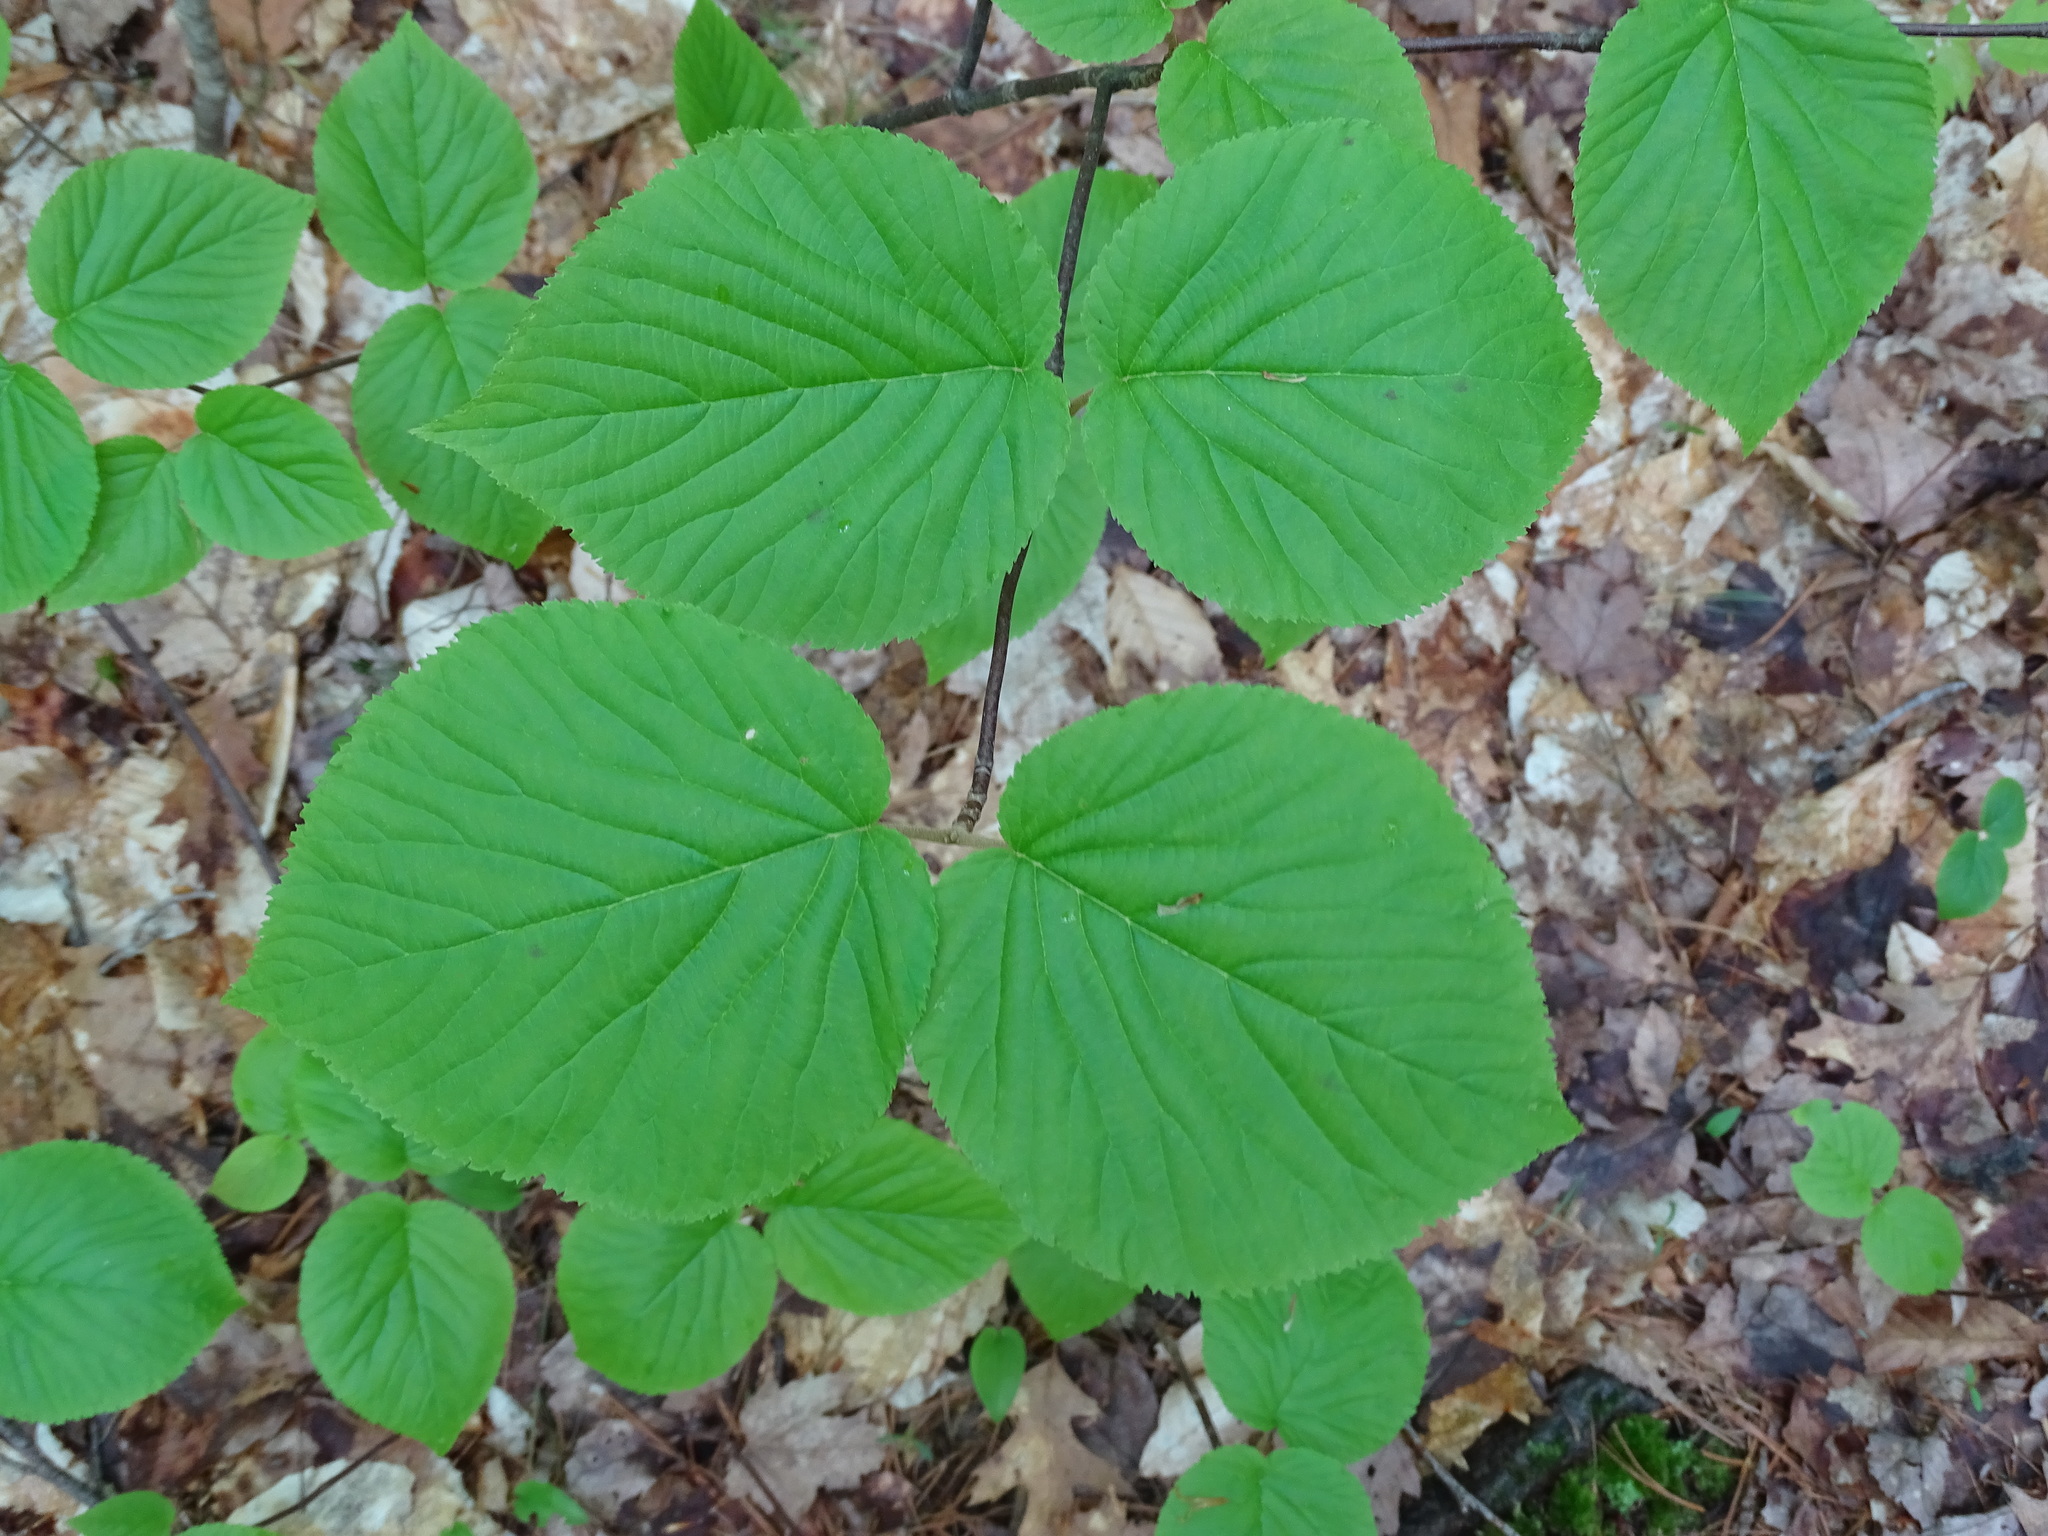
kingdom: Plantae
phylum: Tracheophyta
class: Magnoliopsida
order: Dipsacales
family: Viburnaceae
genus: Viburnum
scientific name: Viburnum lantanoides
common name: Hobblebush
